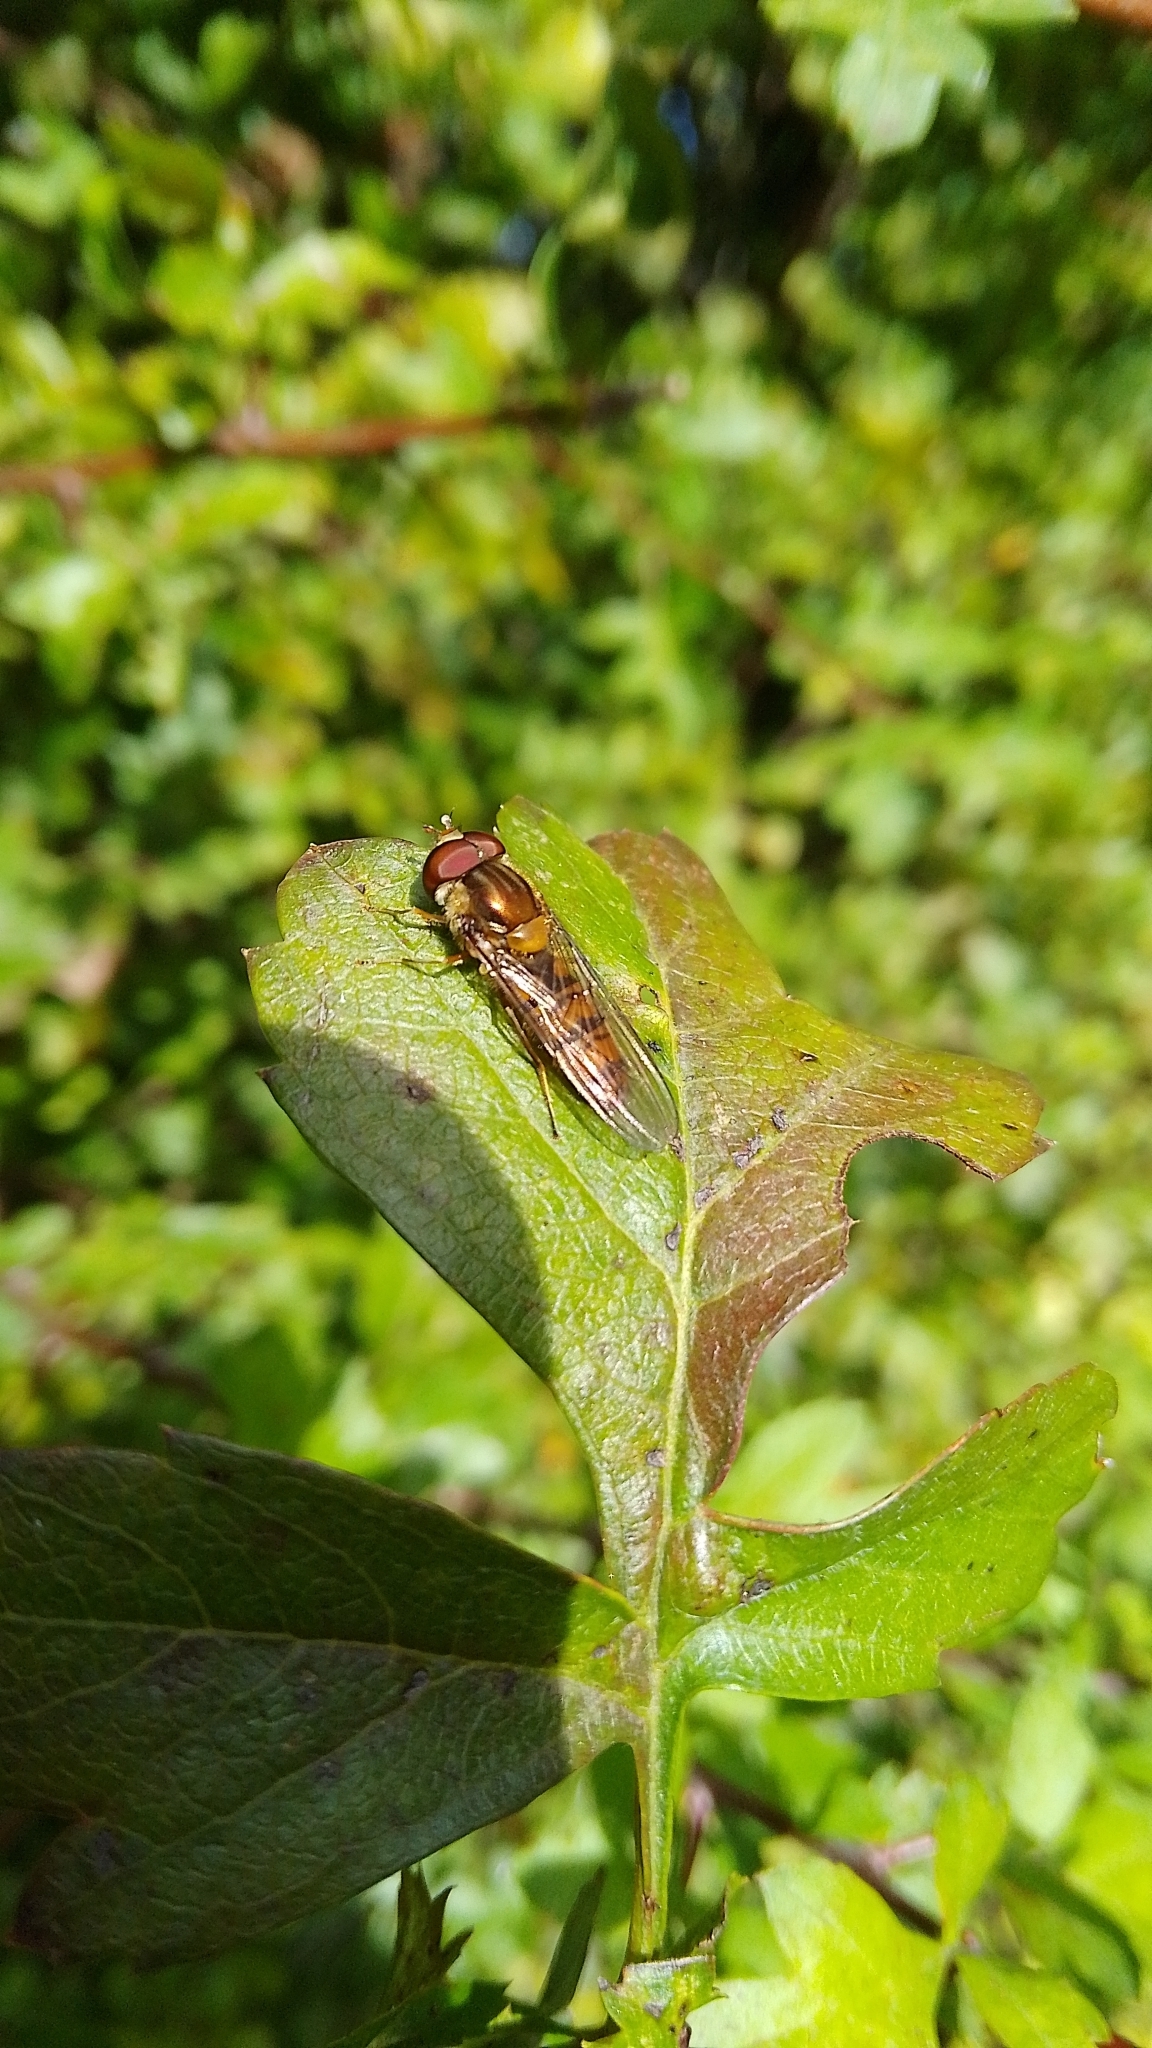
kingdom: Animalia
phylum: Arthropoda
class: Insecta
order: Diptera
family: Syrphidae
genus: Episyrphus
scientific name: Episyrphus balteatus
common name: Marmalade hoverfly
